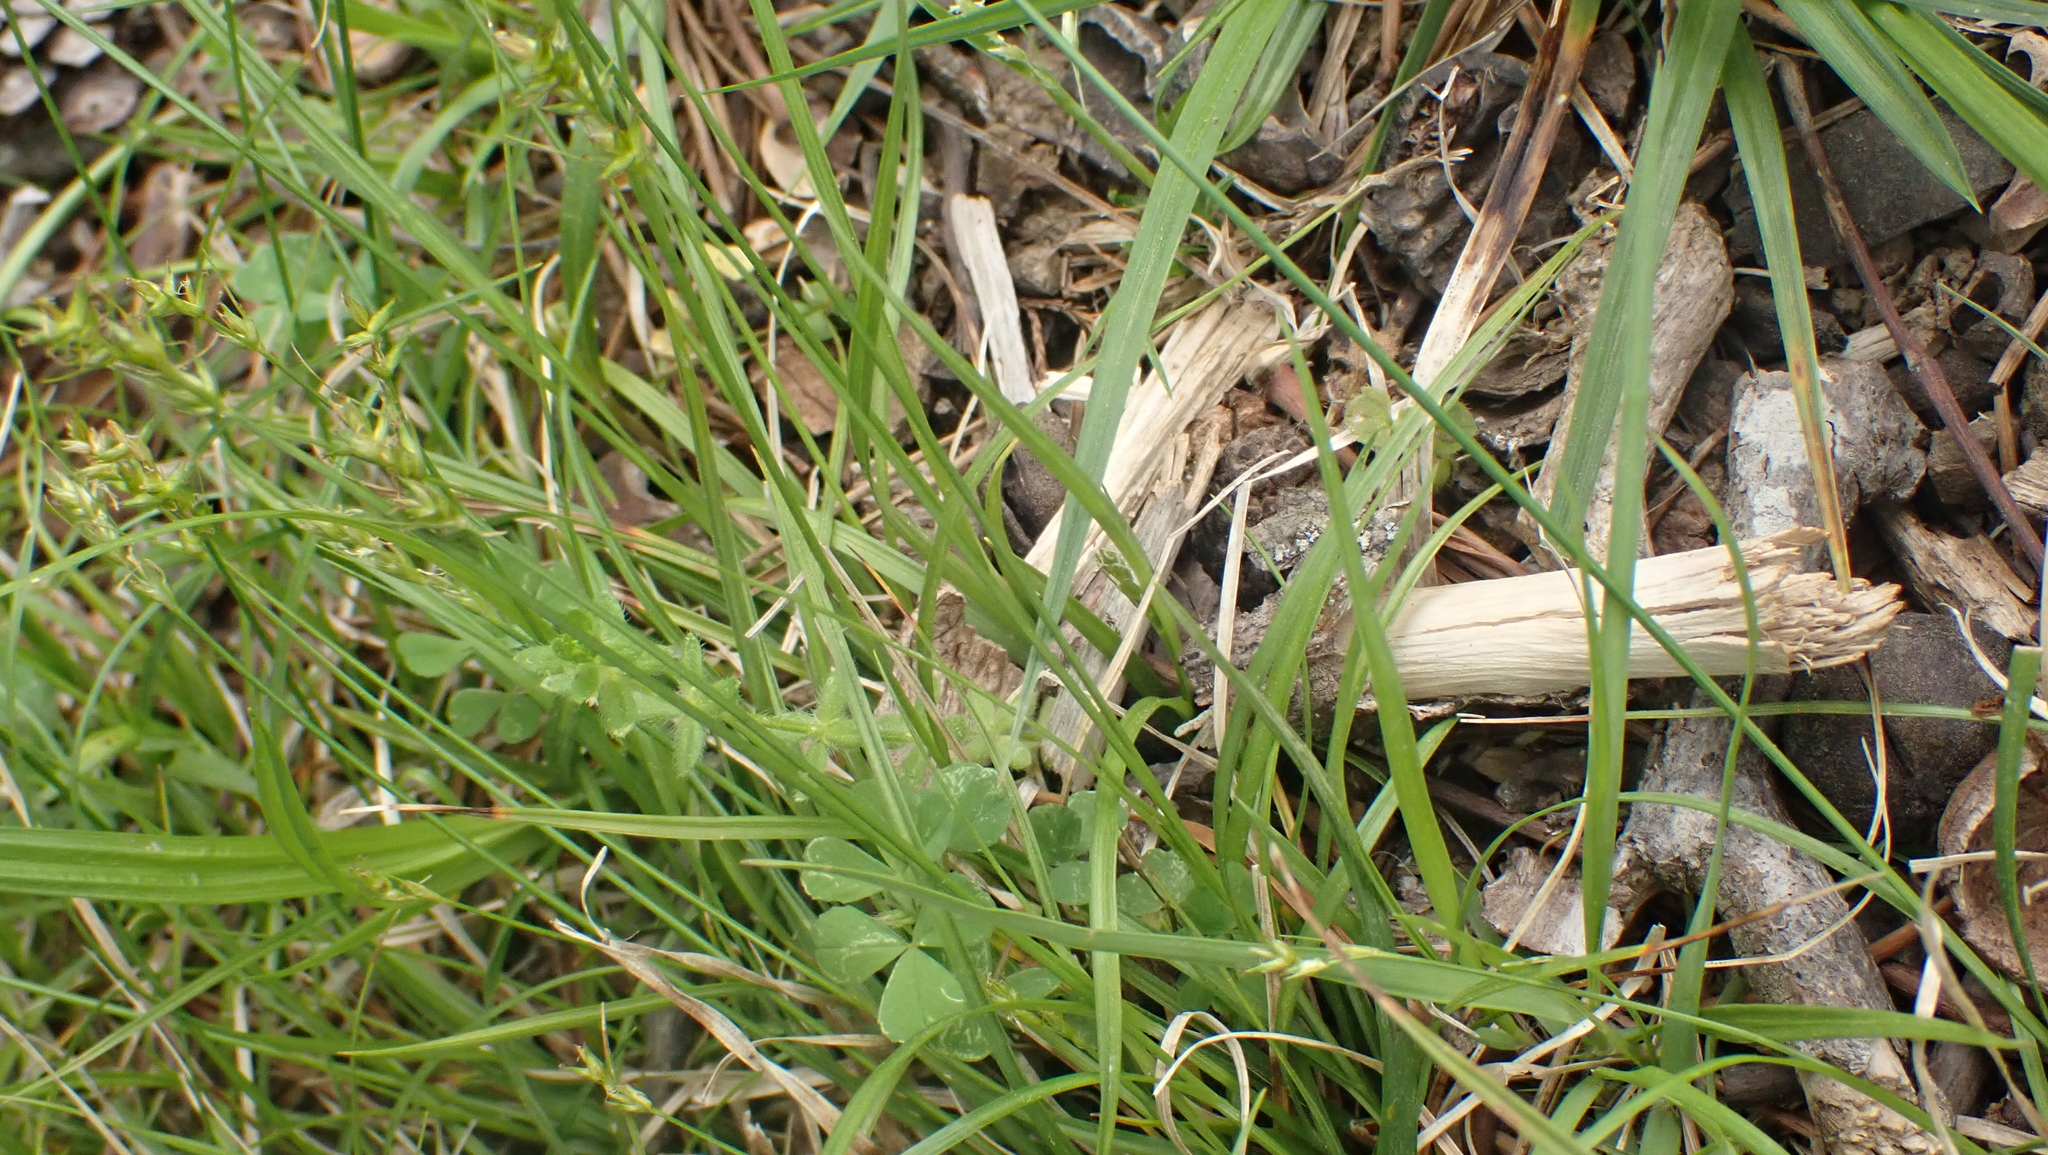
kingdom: Plantae
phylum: Tracheophyta
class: Liliopsida
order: Poales
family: Cyperaceae
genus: Carex
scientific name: Carex texensis
